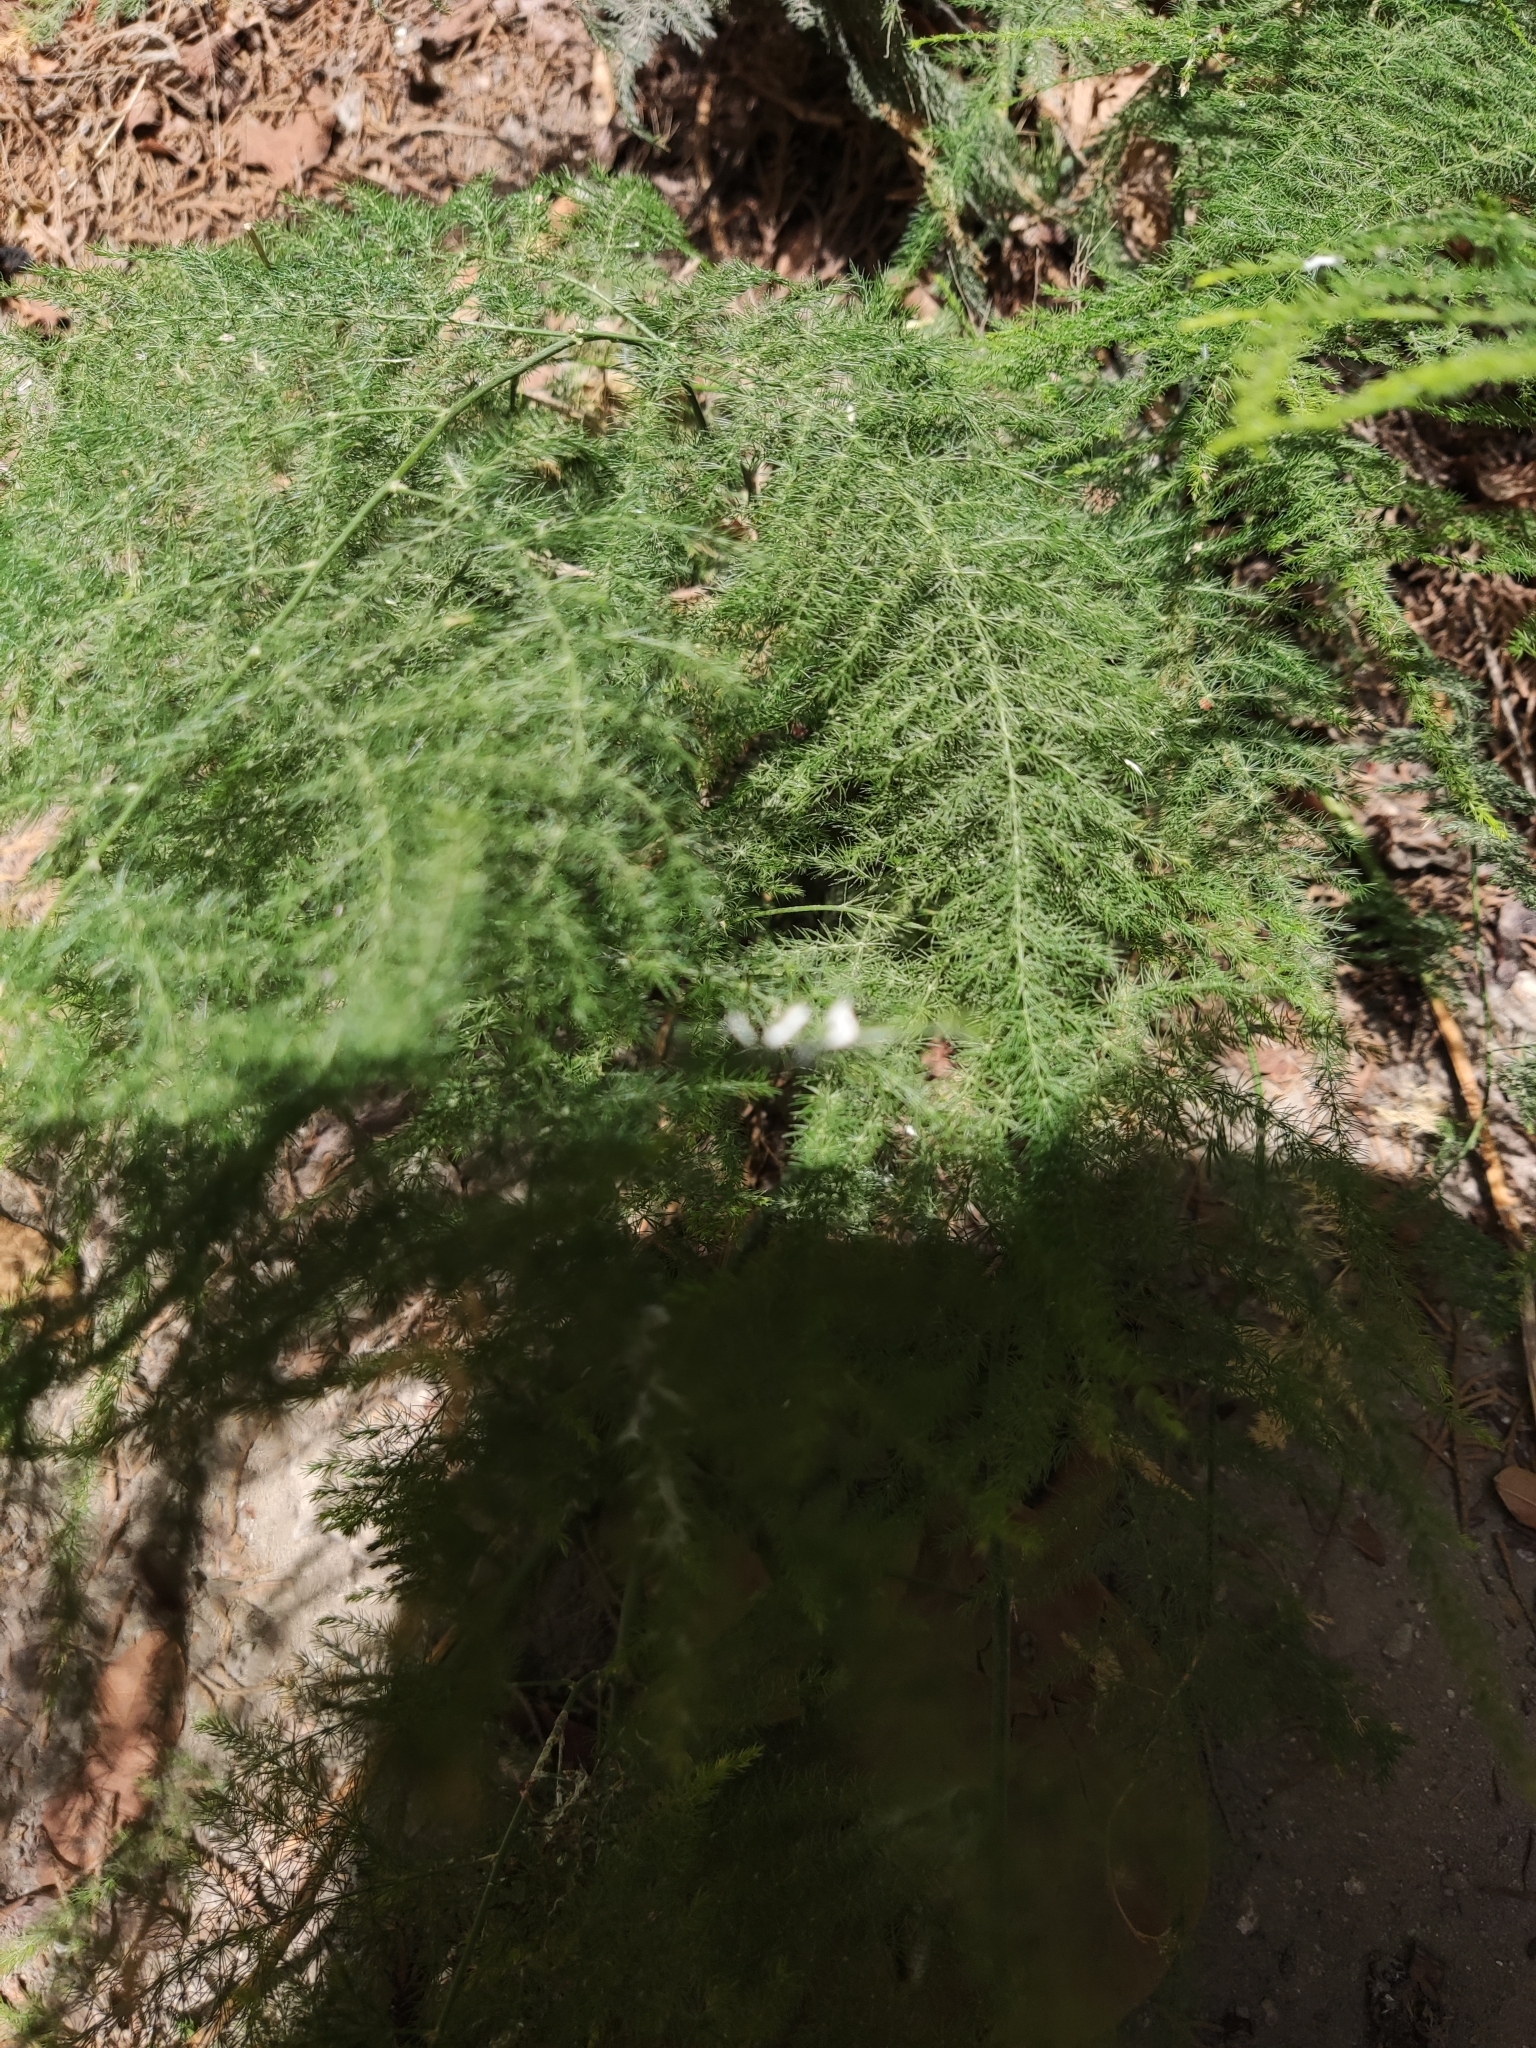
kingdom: Plantae
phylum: Tracheophyta
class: Liliopsida
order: Asparagales
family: Asparagaceae
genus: Asparagus
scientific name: Asparagus setaceus
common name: Common asparagus fern
